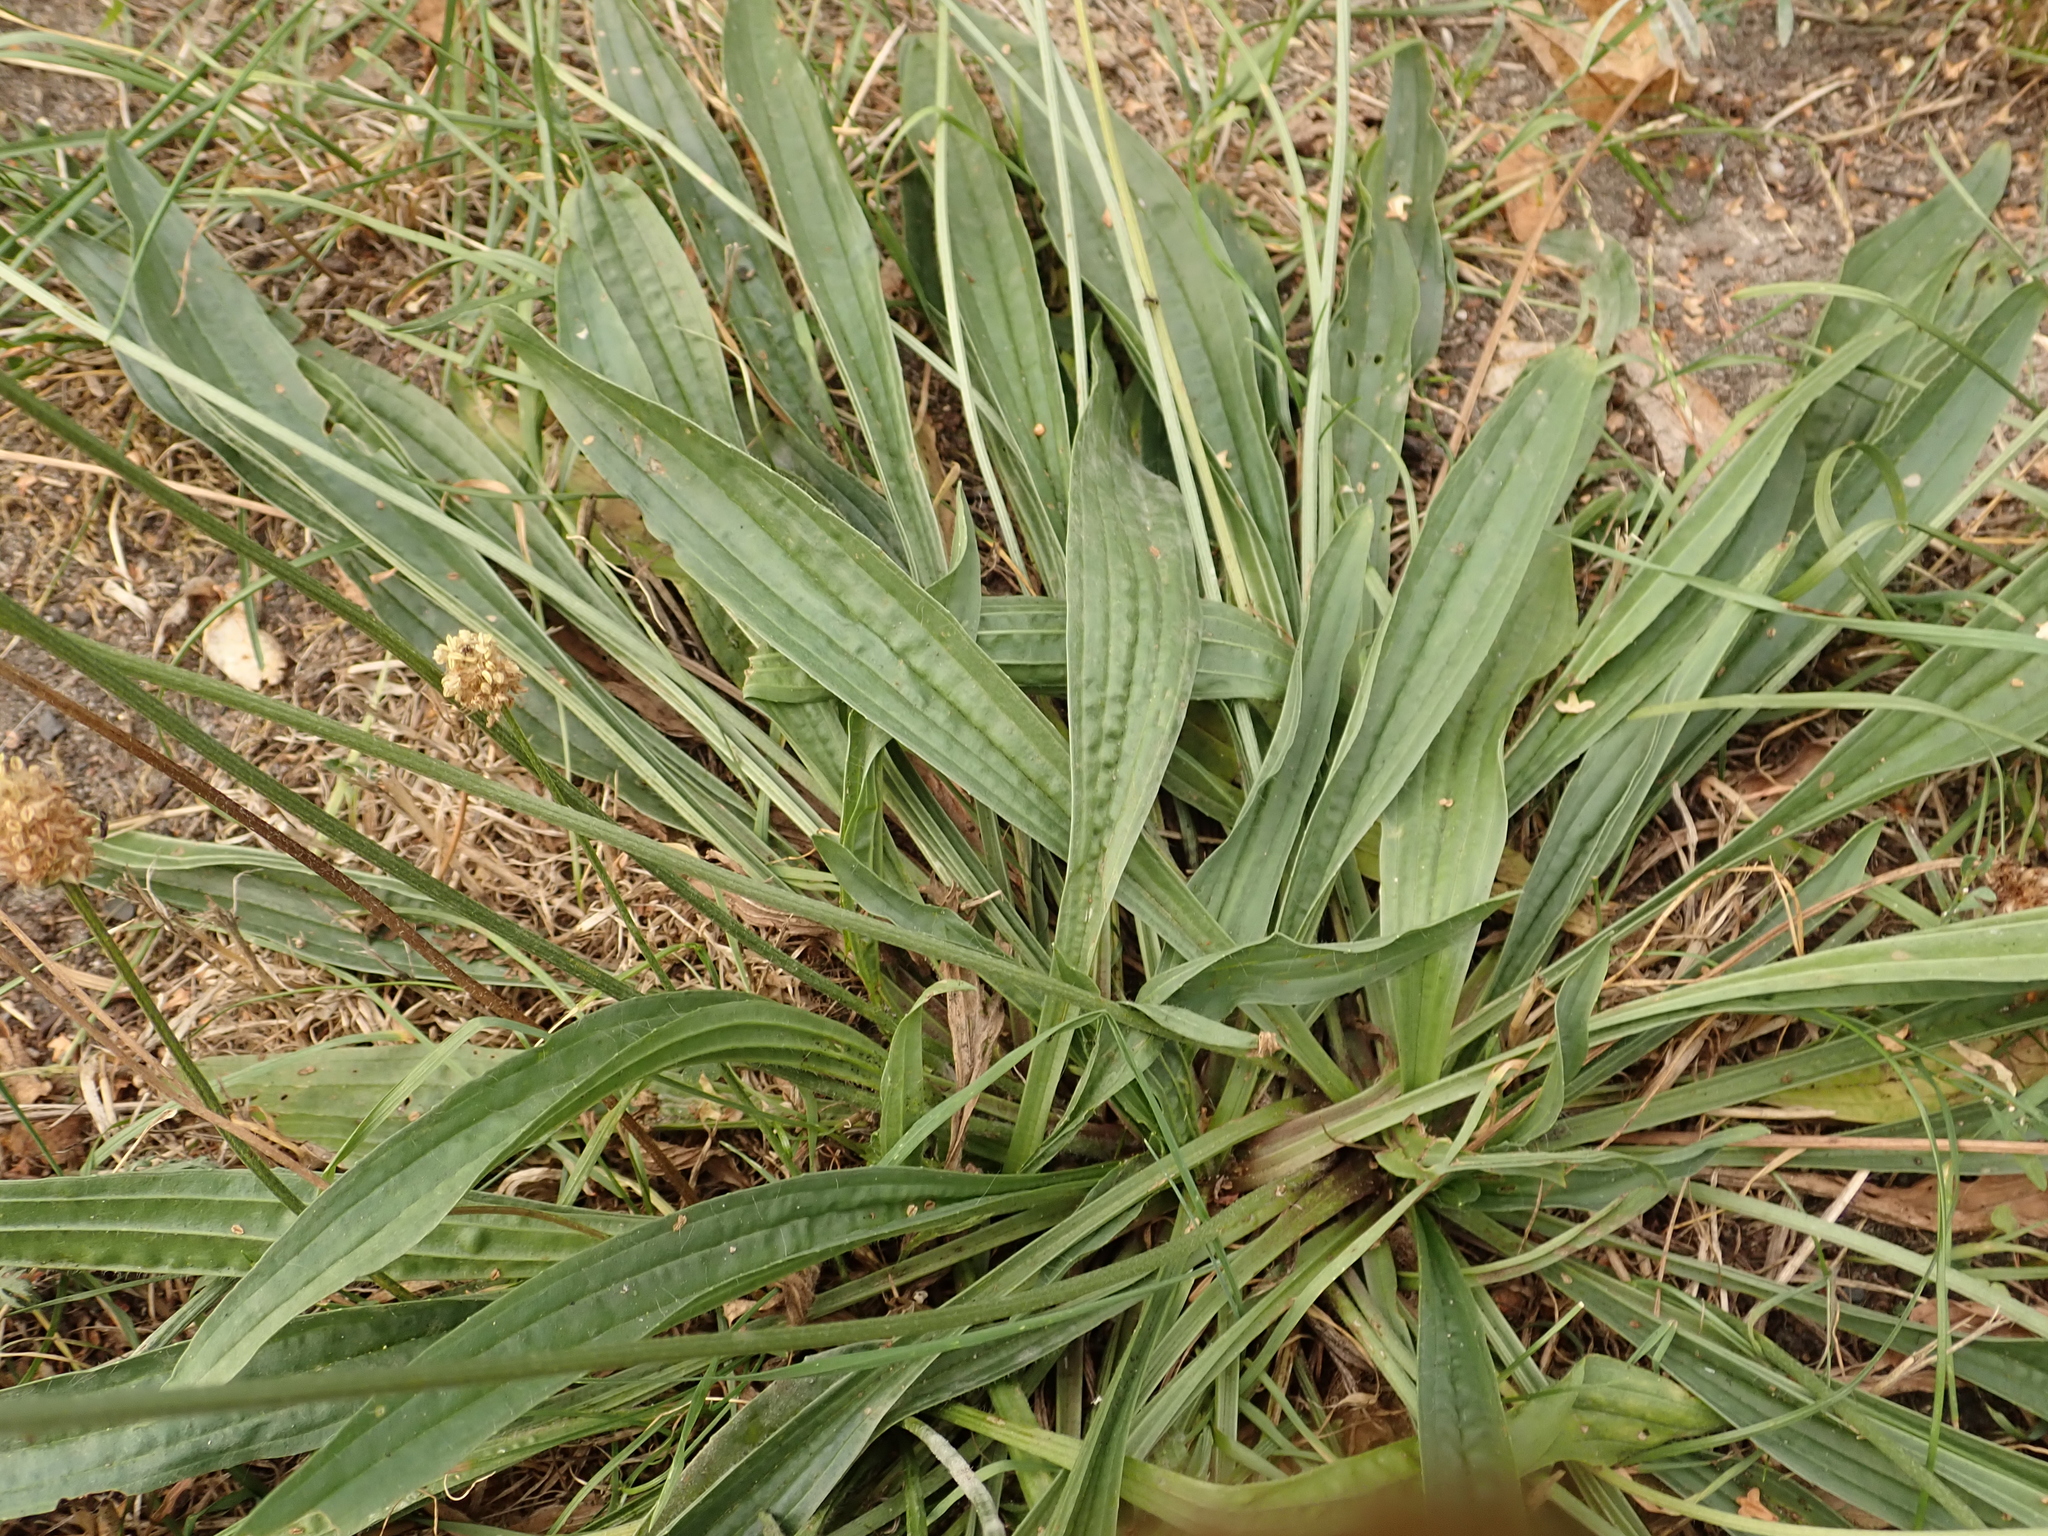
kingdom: Plantae
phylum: Tracheophyta
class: Magnoliopsida
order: Lamiales
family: Plantaginaceae
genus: Plantago
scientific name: Plantago lanceolata
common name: Ribwort plantain
